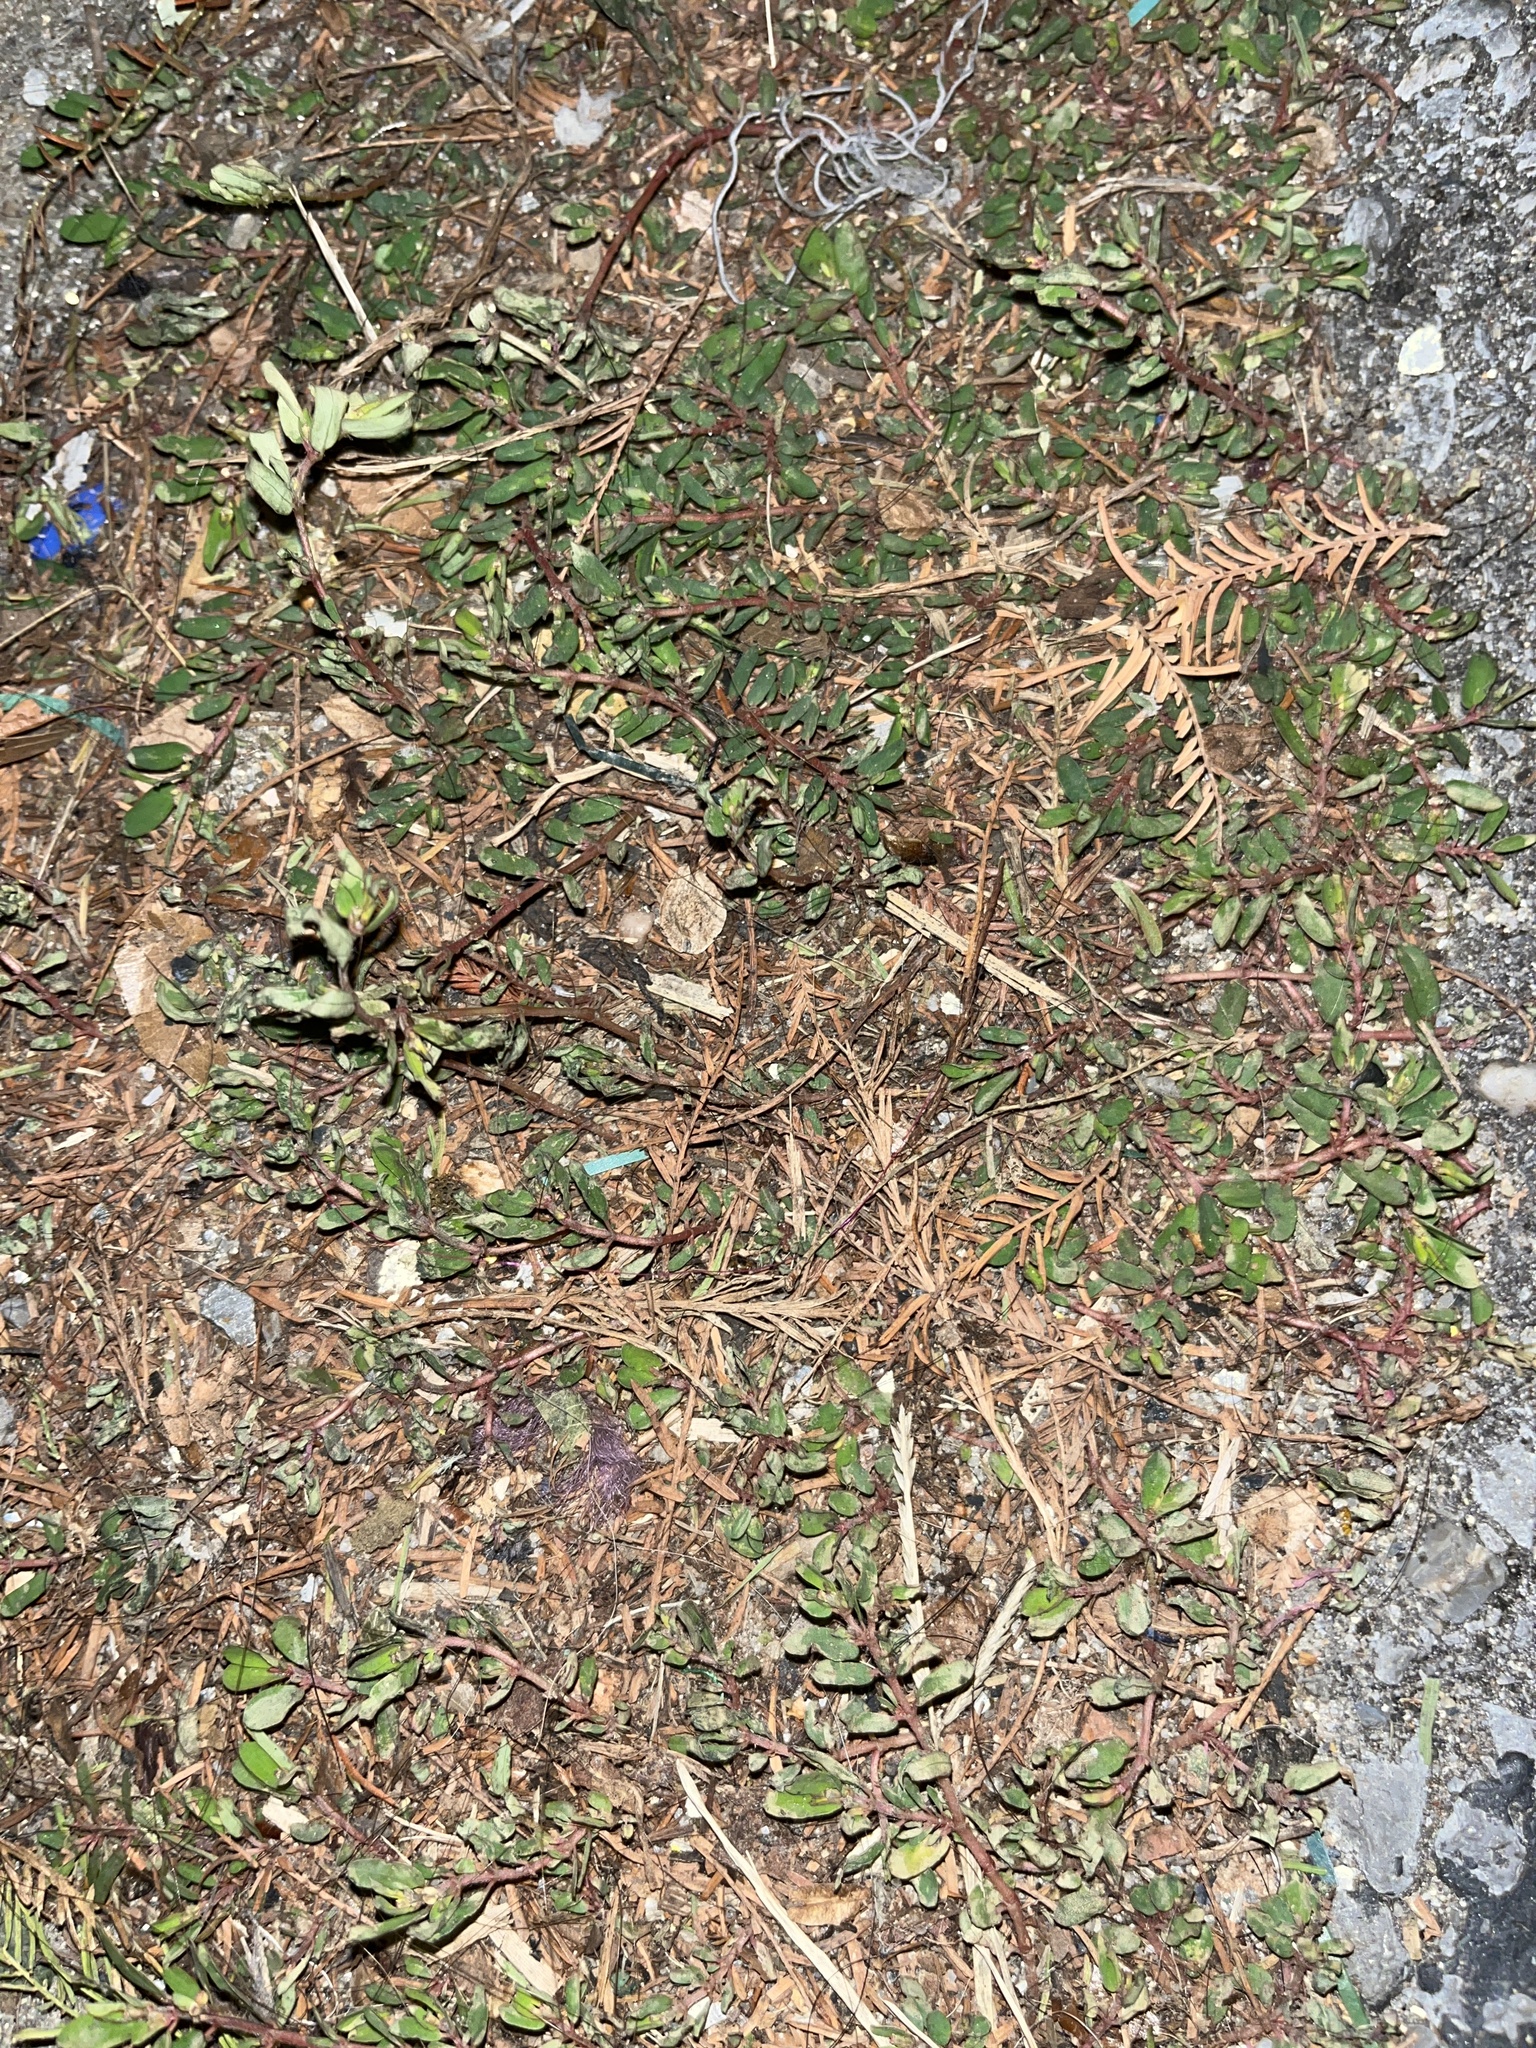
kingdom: Plantae
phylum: Tracheophyta
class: Magnoliopsida
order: Malpighiales
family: Euphorbiaceae
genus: Euphorbia
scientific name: Euphorbia maculata
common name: Spotted spurge
